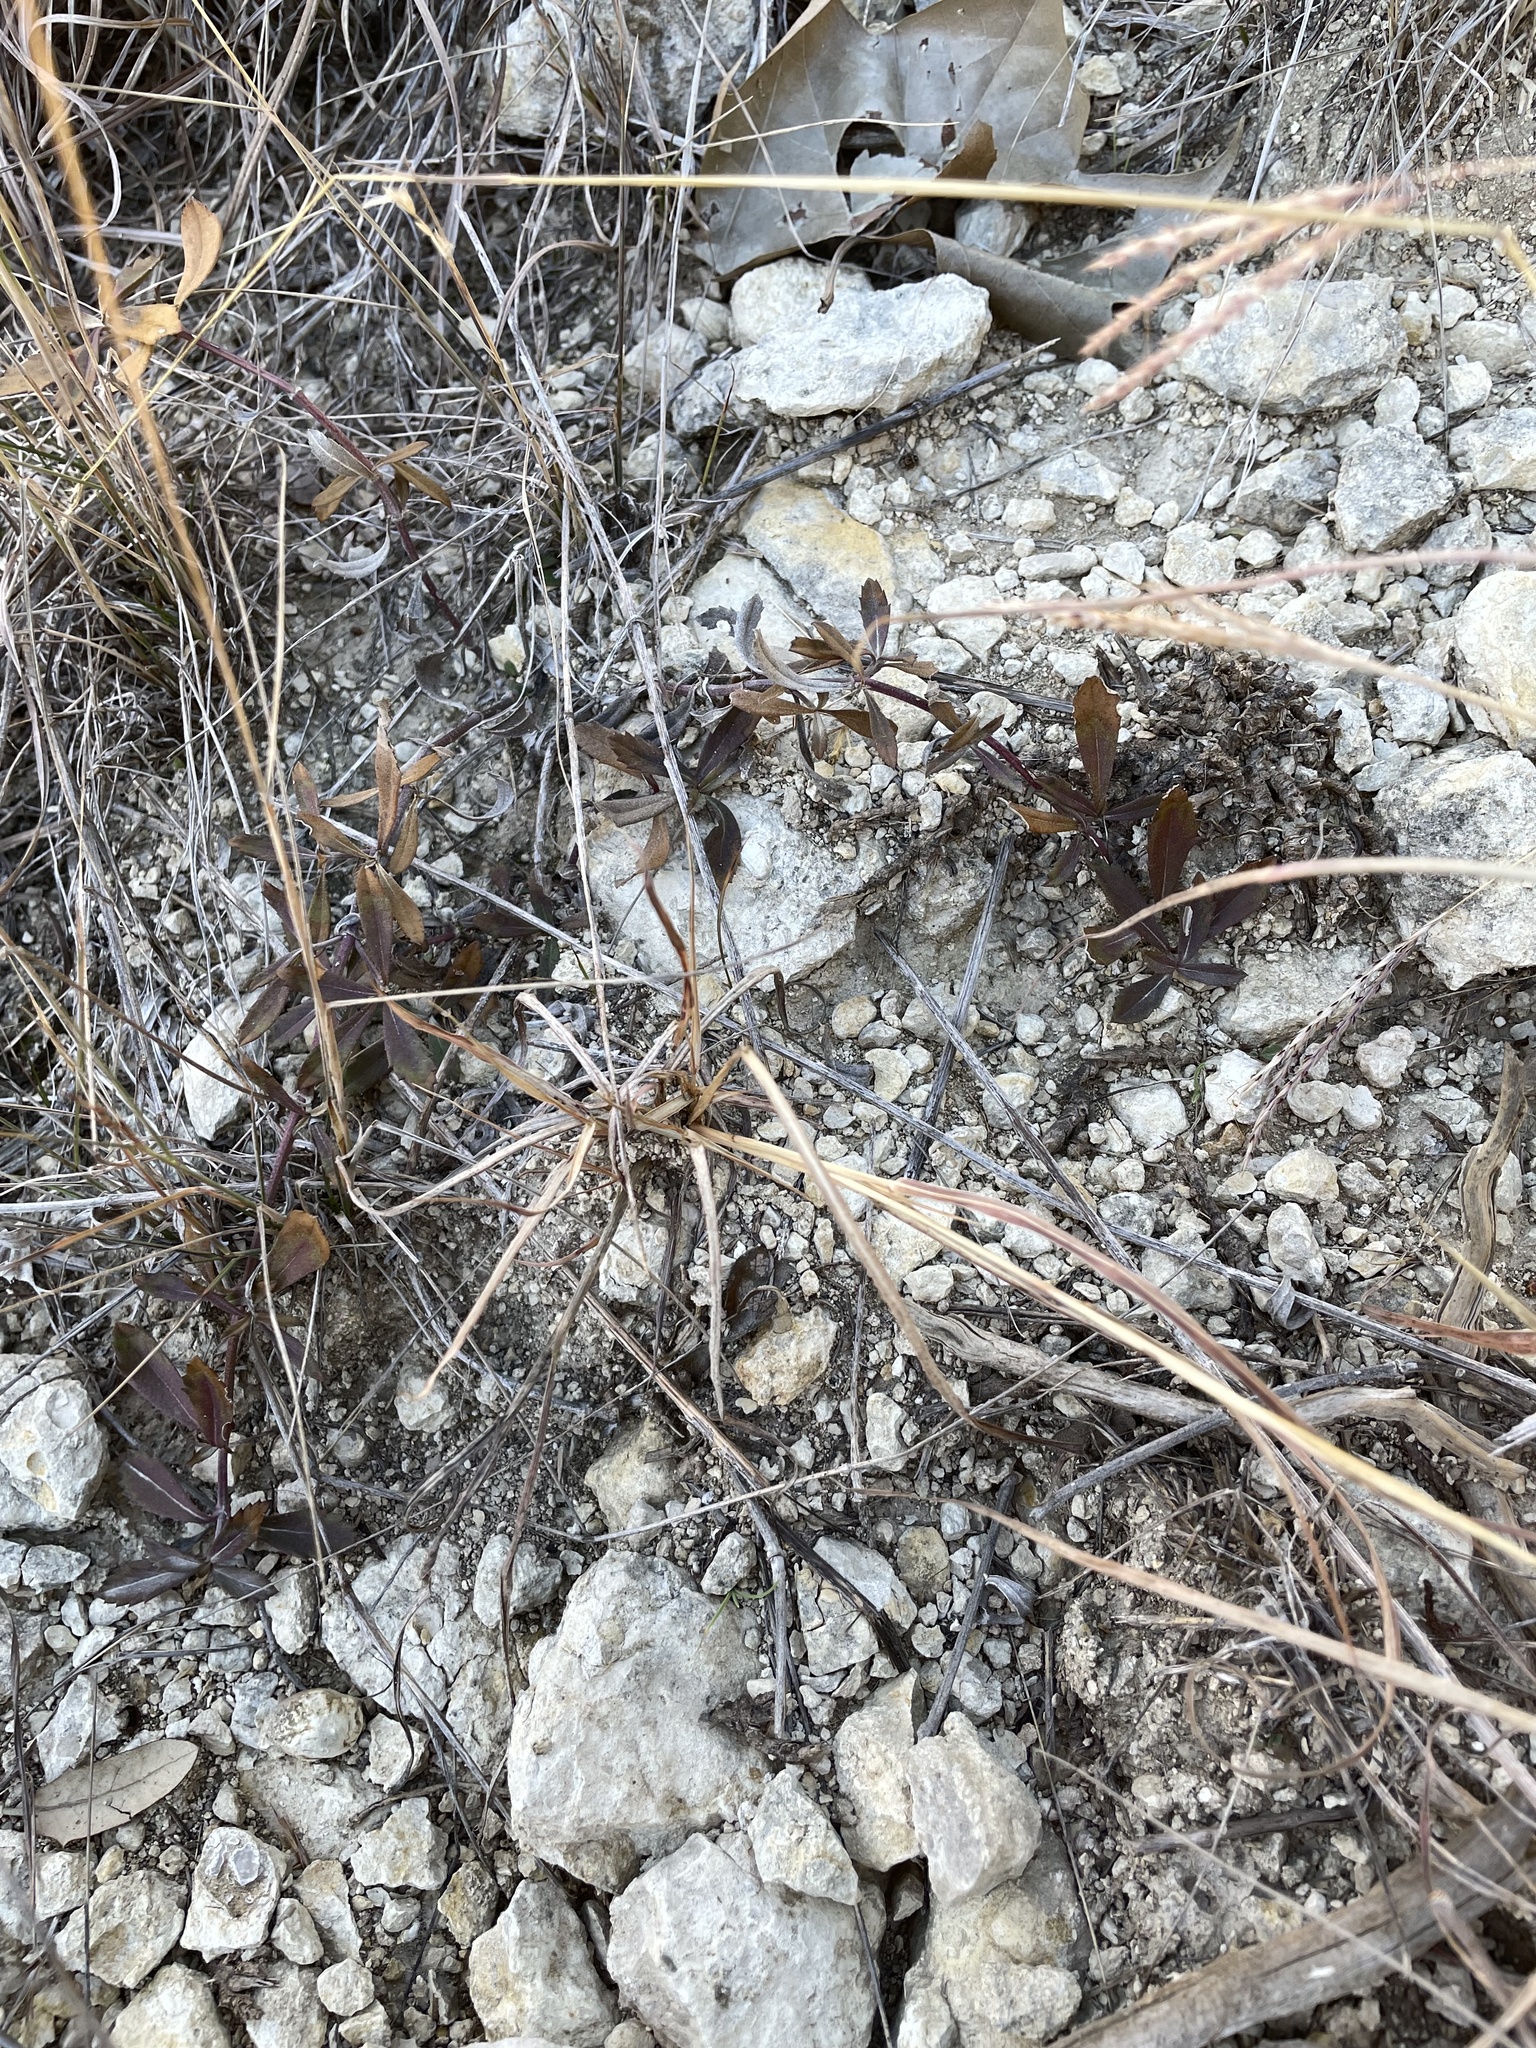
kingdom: Plantae
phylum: Tracheophyta
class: Magnoliopsida
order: Lamiales
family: Verbenaceae
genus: Phyla
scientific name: Phyla nodiflora
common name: Frogfruit
